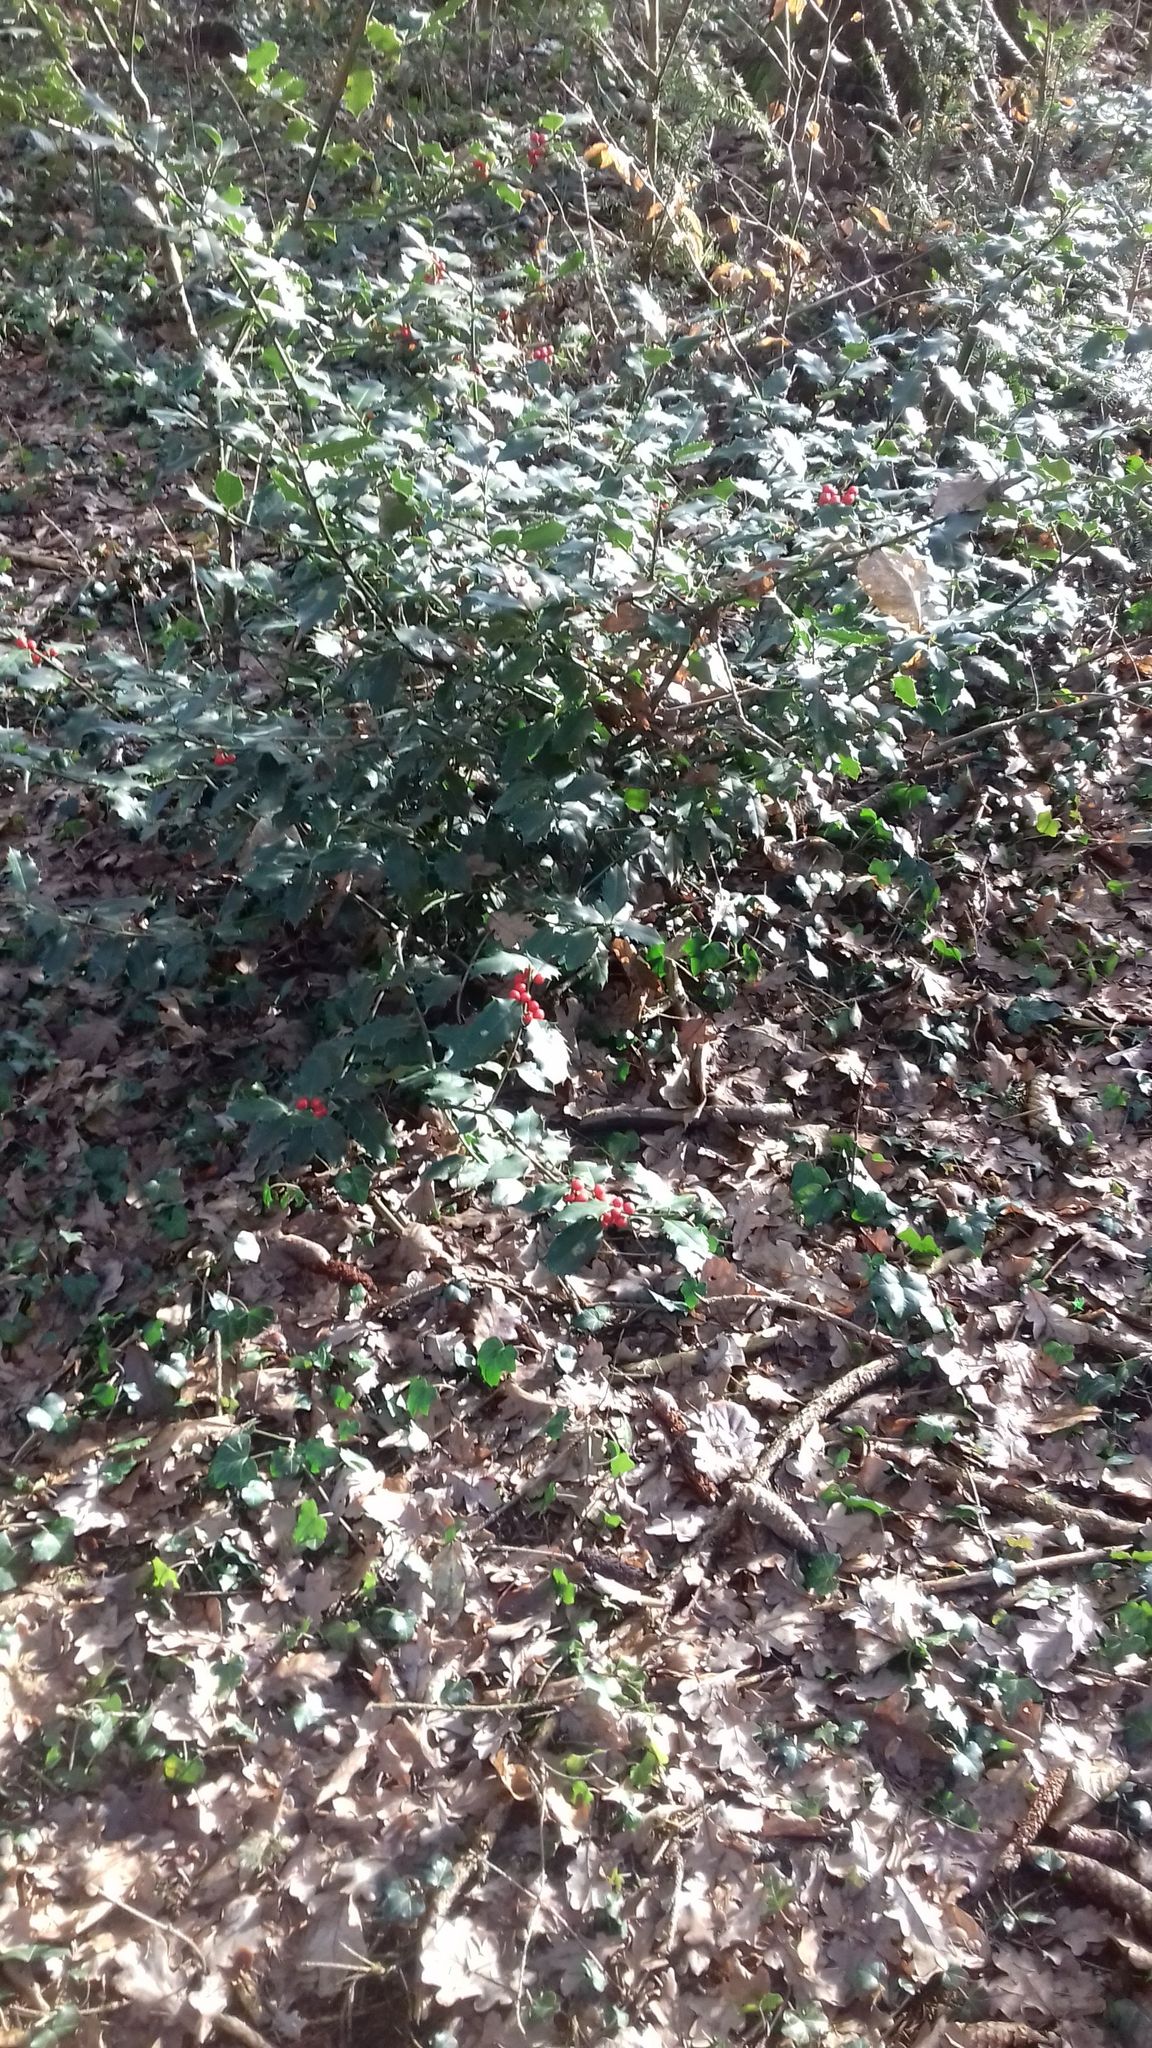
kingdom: Plantae
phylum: Tracheophyta
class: Magnoliopsida
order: Aquifoliales
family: Aquifoliaceae
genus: Ilex
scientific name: Ilex aquifolium
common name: English holly
